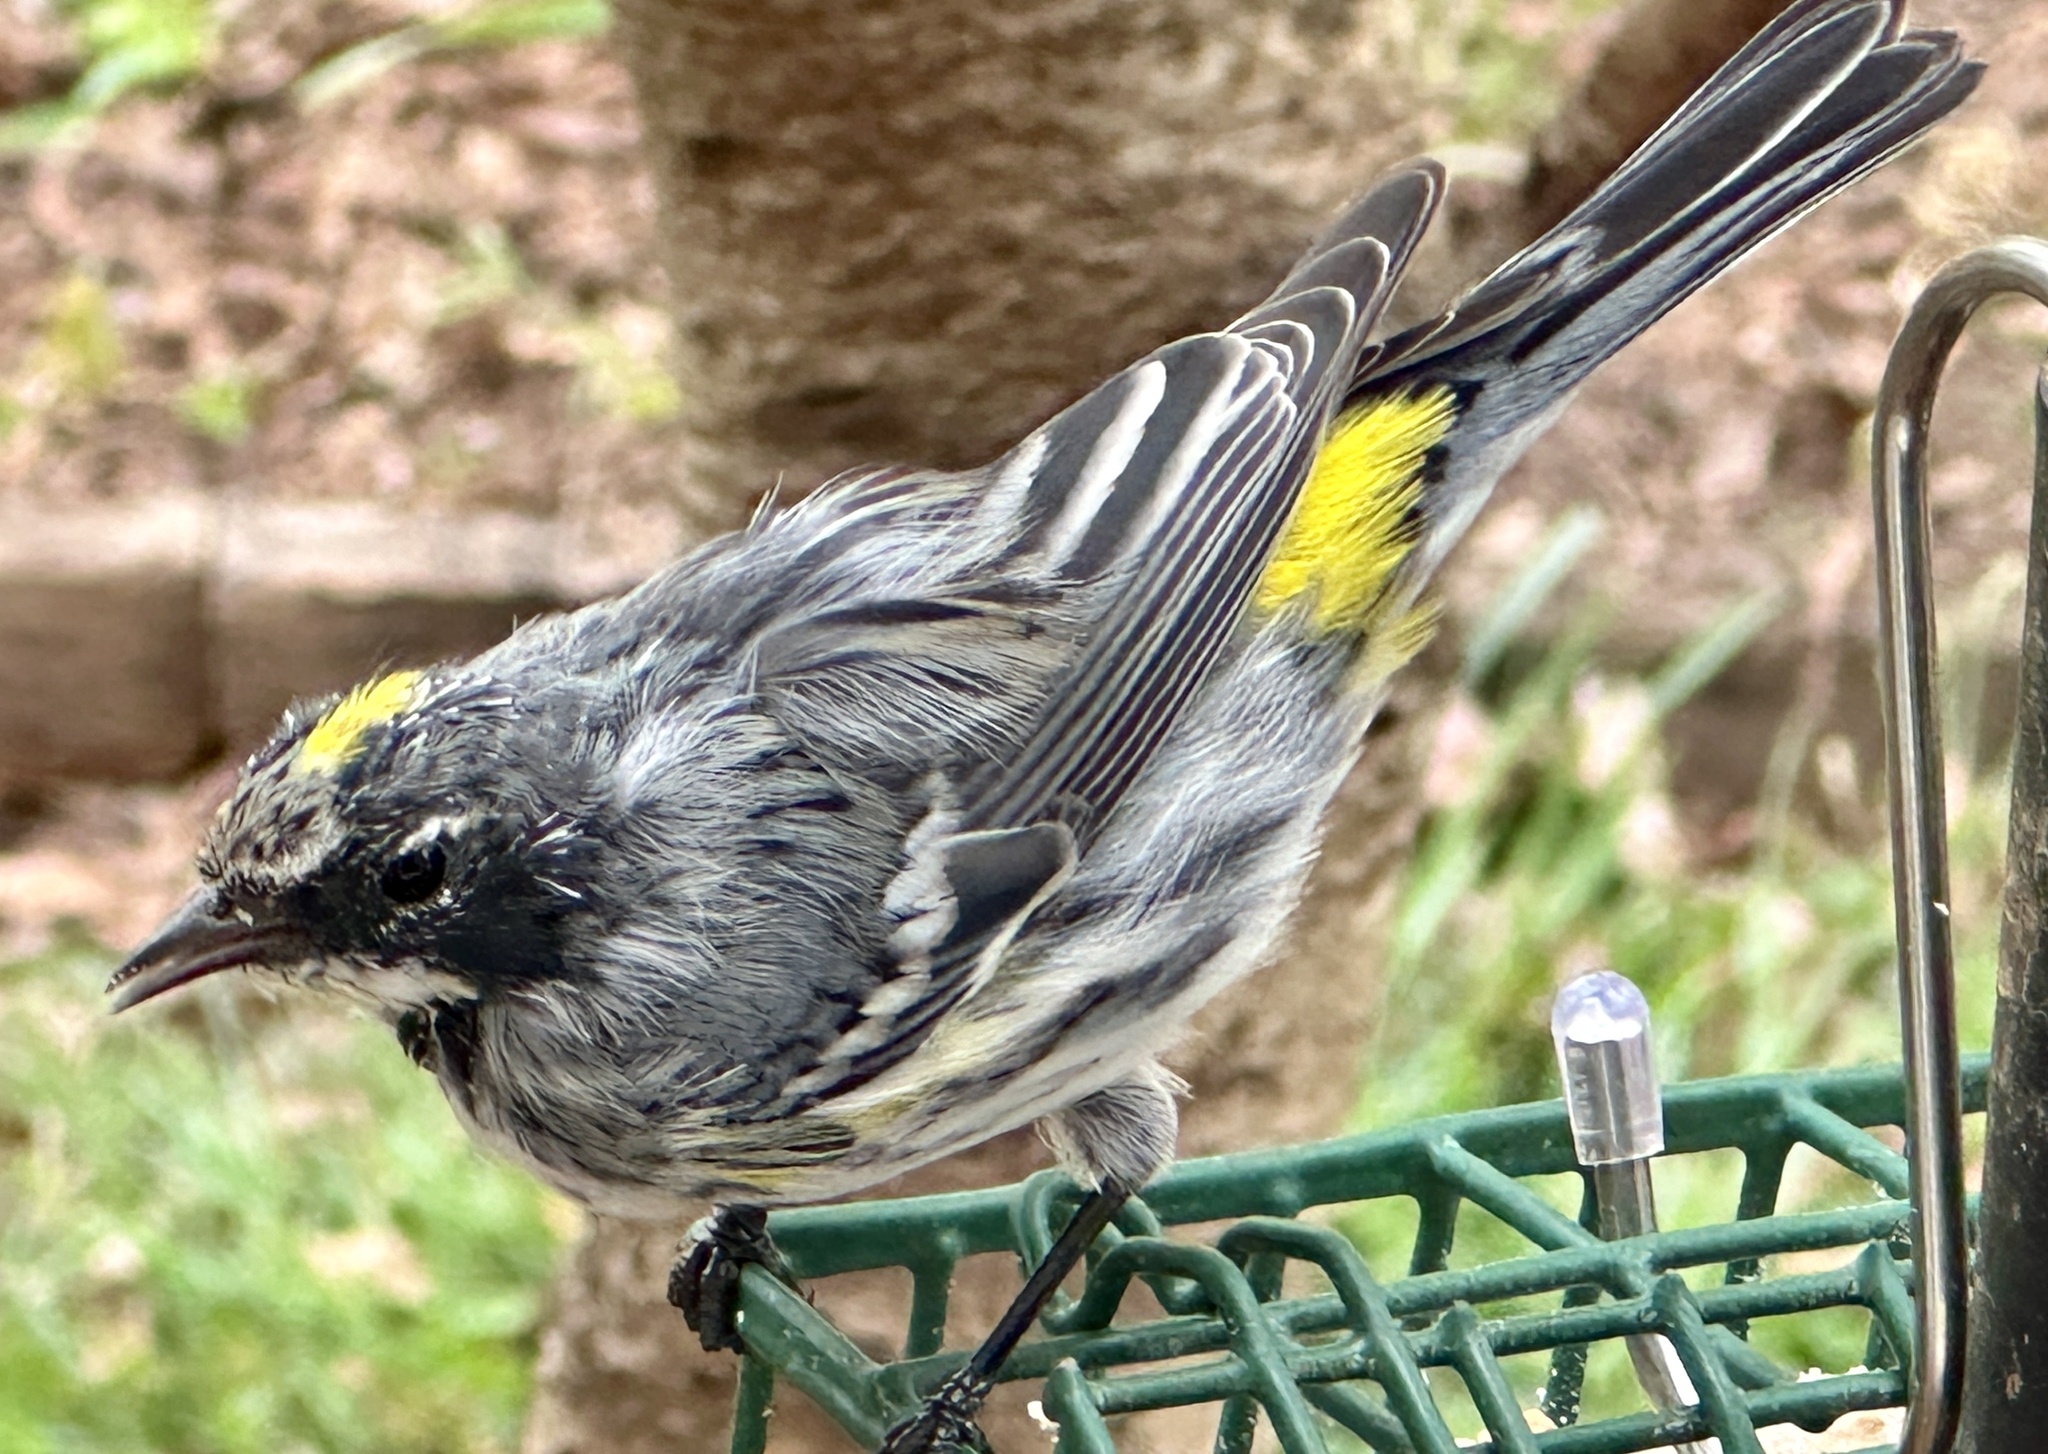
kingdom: Animalia
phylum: Chordata
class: Aves
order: Passeriformes
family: Parulidae
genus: Setophaga
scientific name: Setophaga coronata
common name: Myrtle warbler
